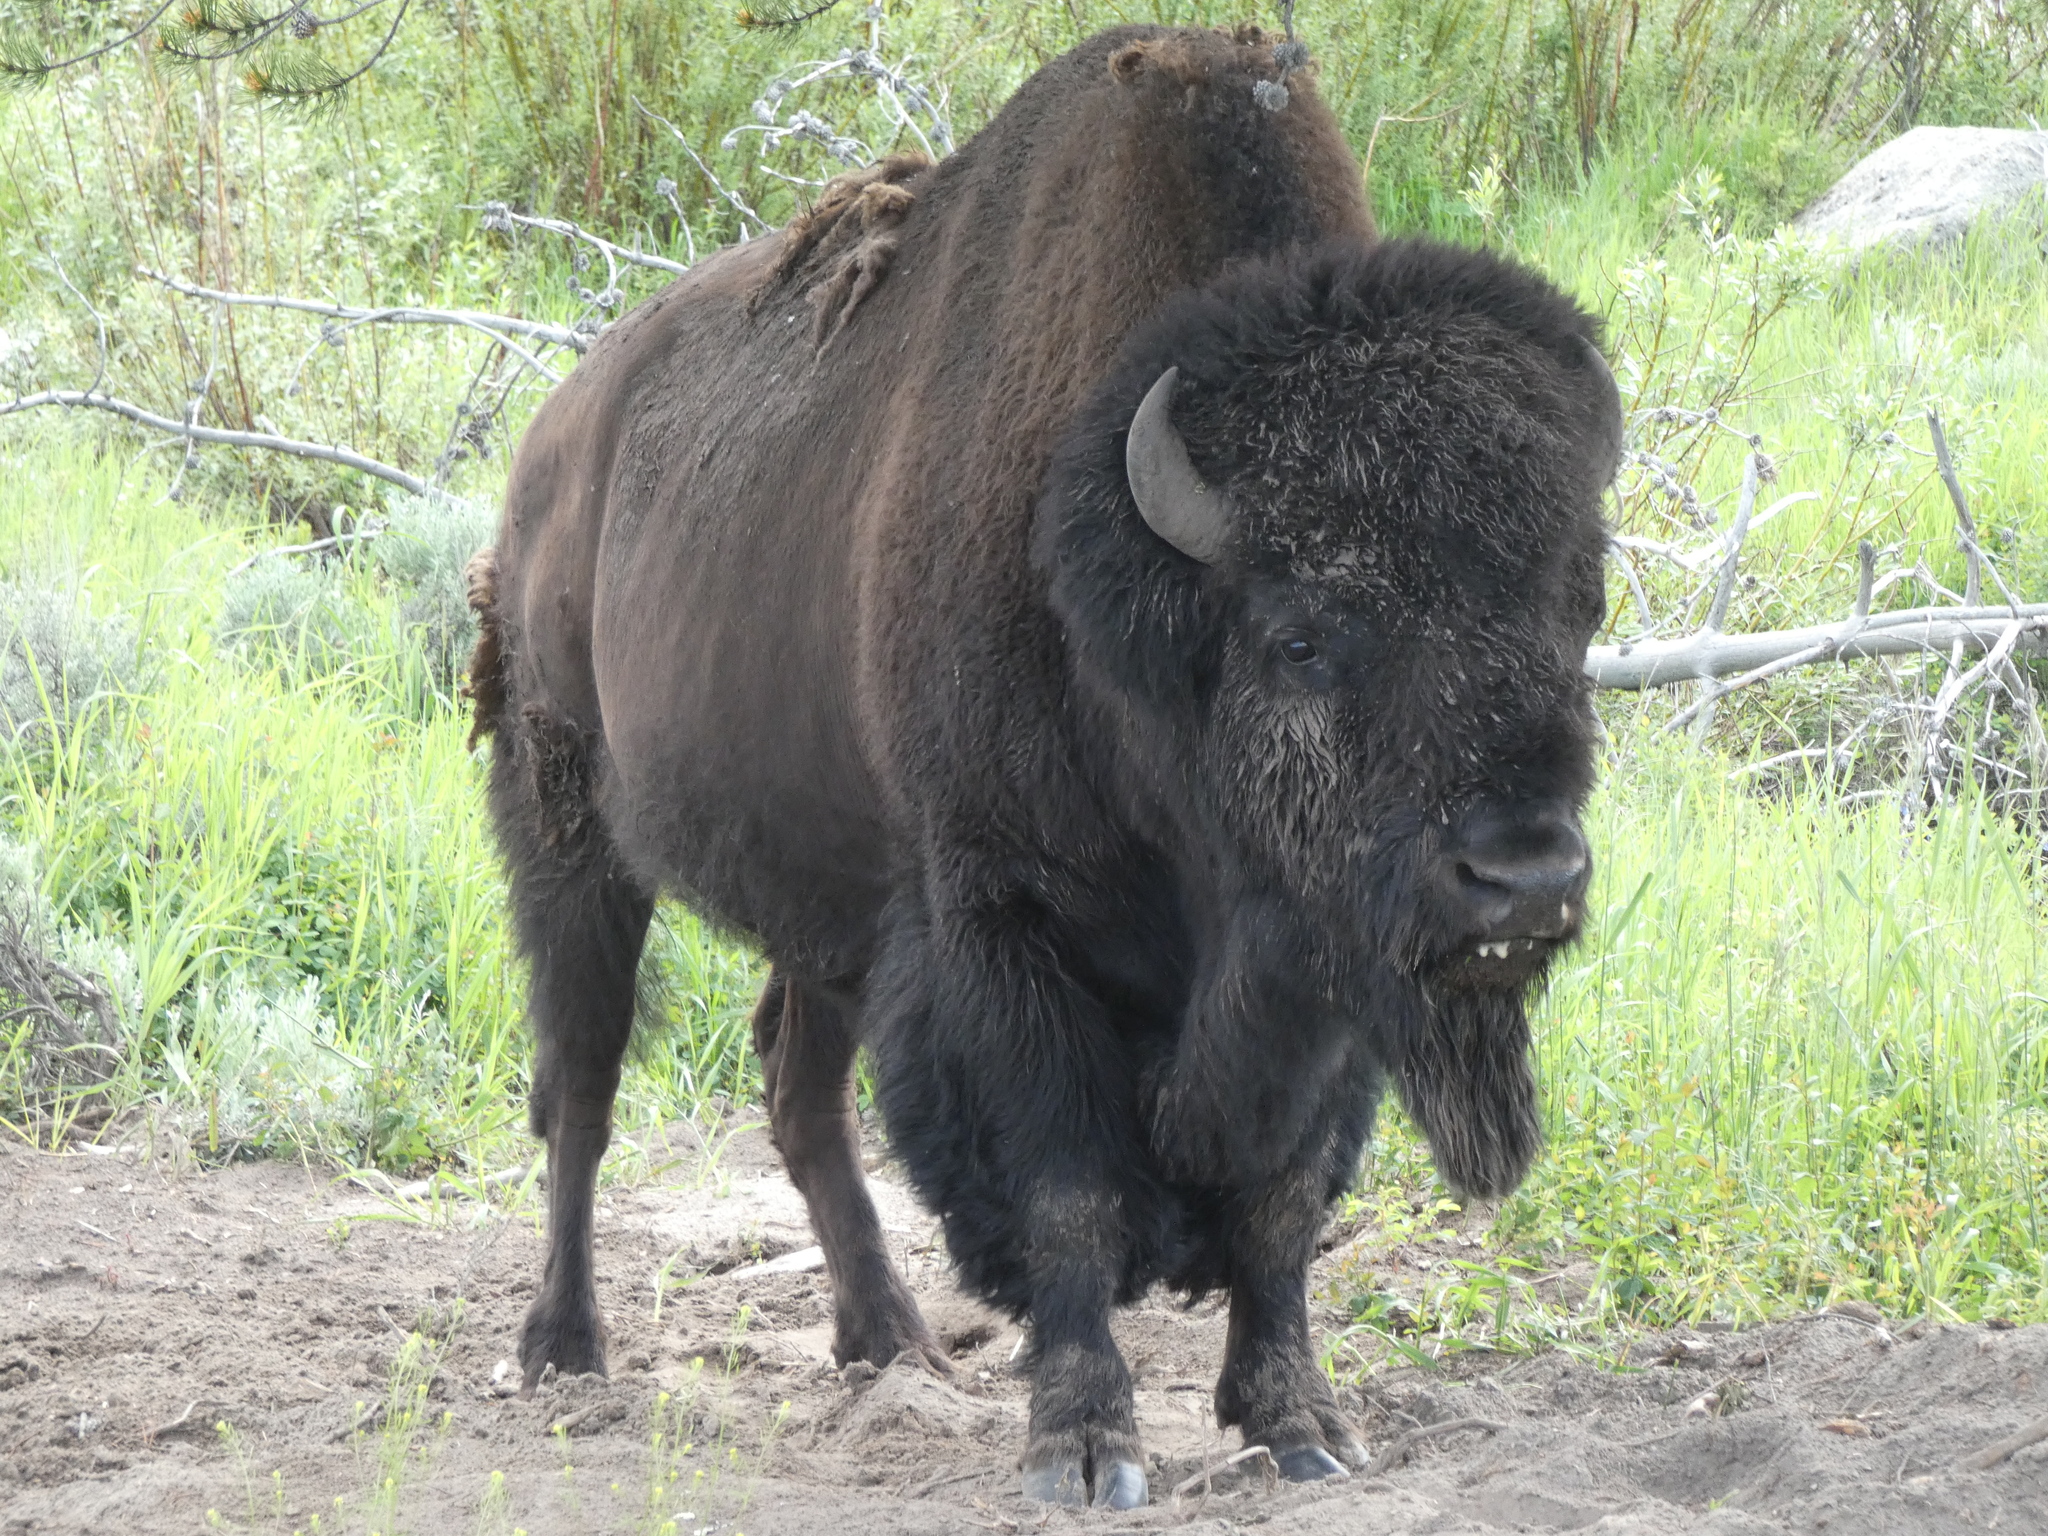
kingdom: Animalia
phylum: Chordata
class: Mammalia
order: Artiodactyla
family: Bovidae
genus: Bison
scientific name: Bison bison
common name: American bison
